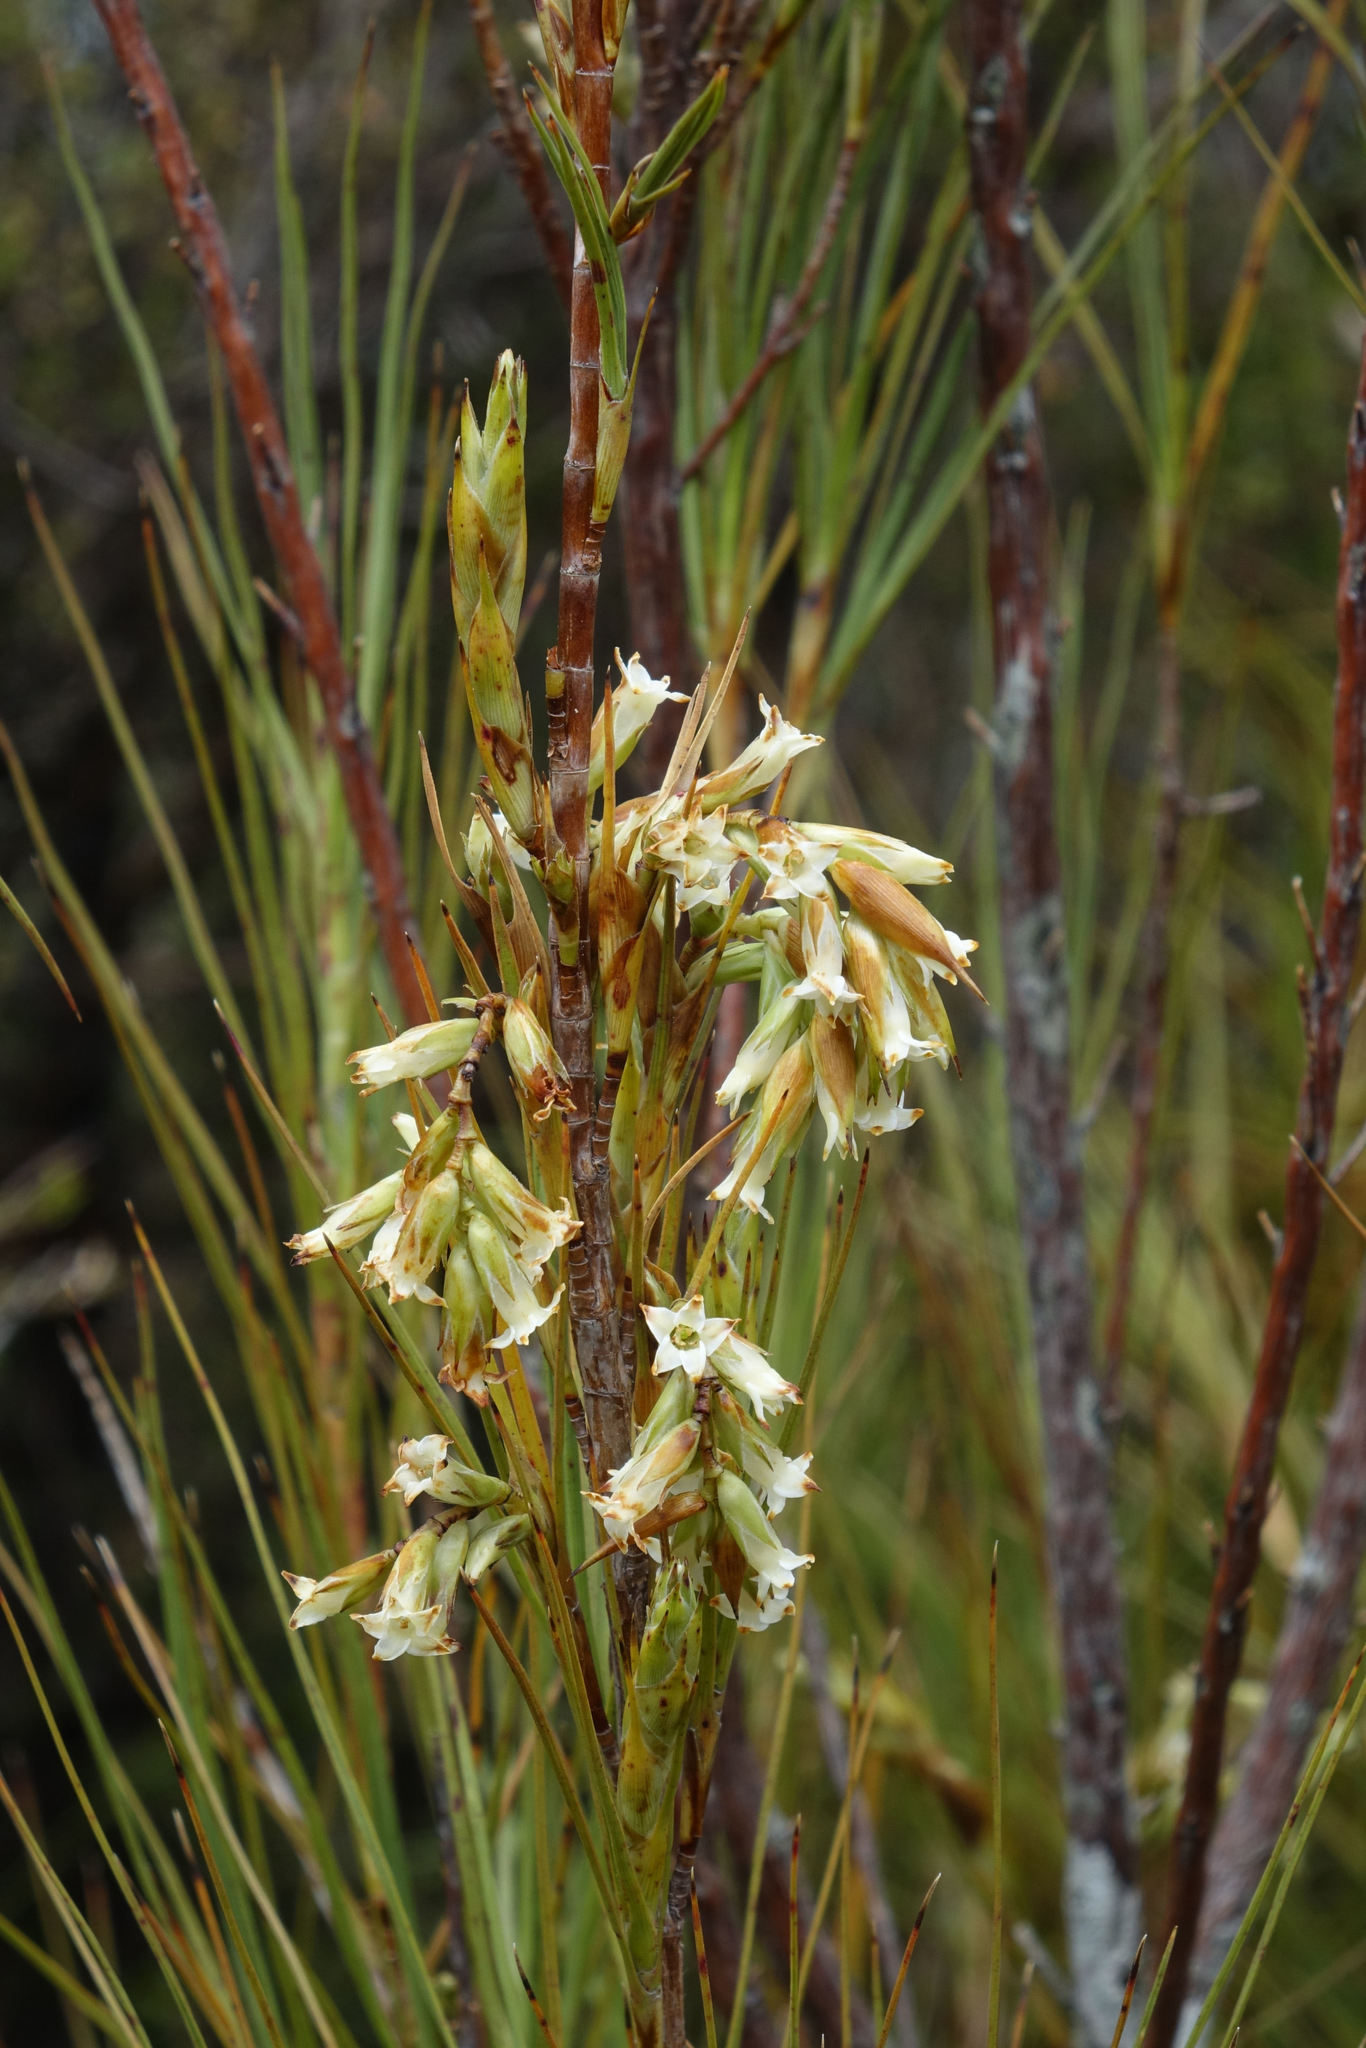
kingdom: Plantae
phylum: Tracheophyta
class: Magnoliopsida
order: Ericales
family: Ericaceae
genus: Dracophyllum
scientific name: Dracophyllum longifolium
